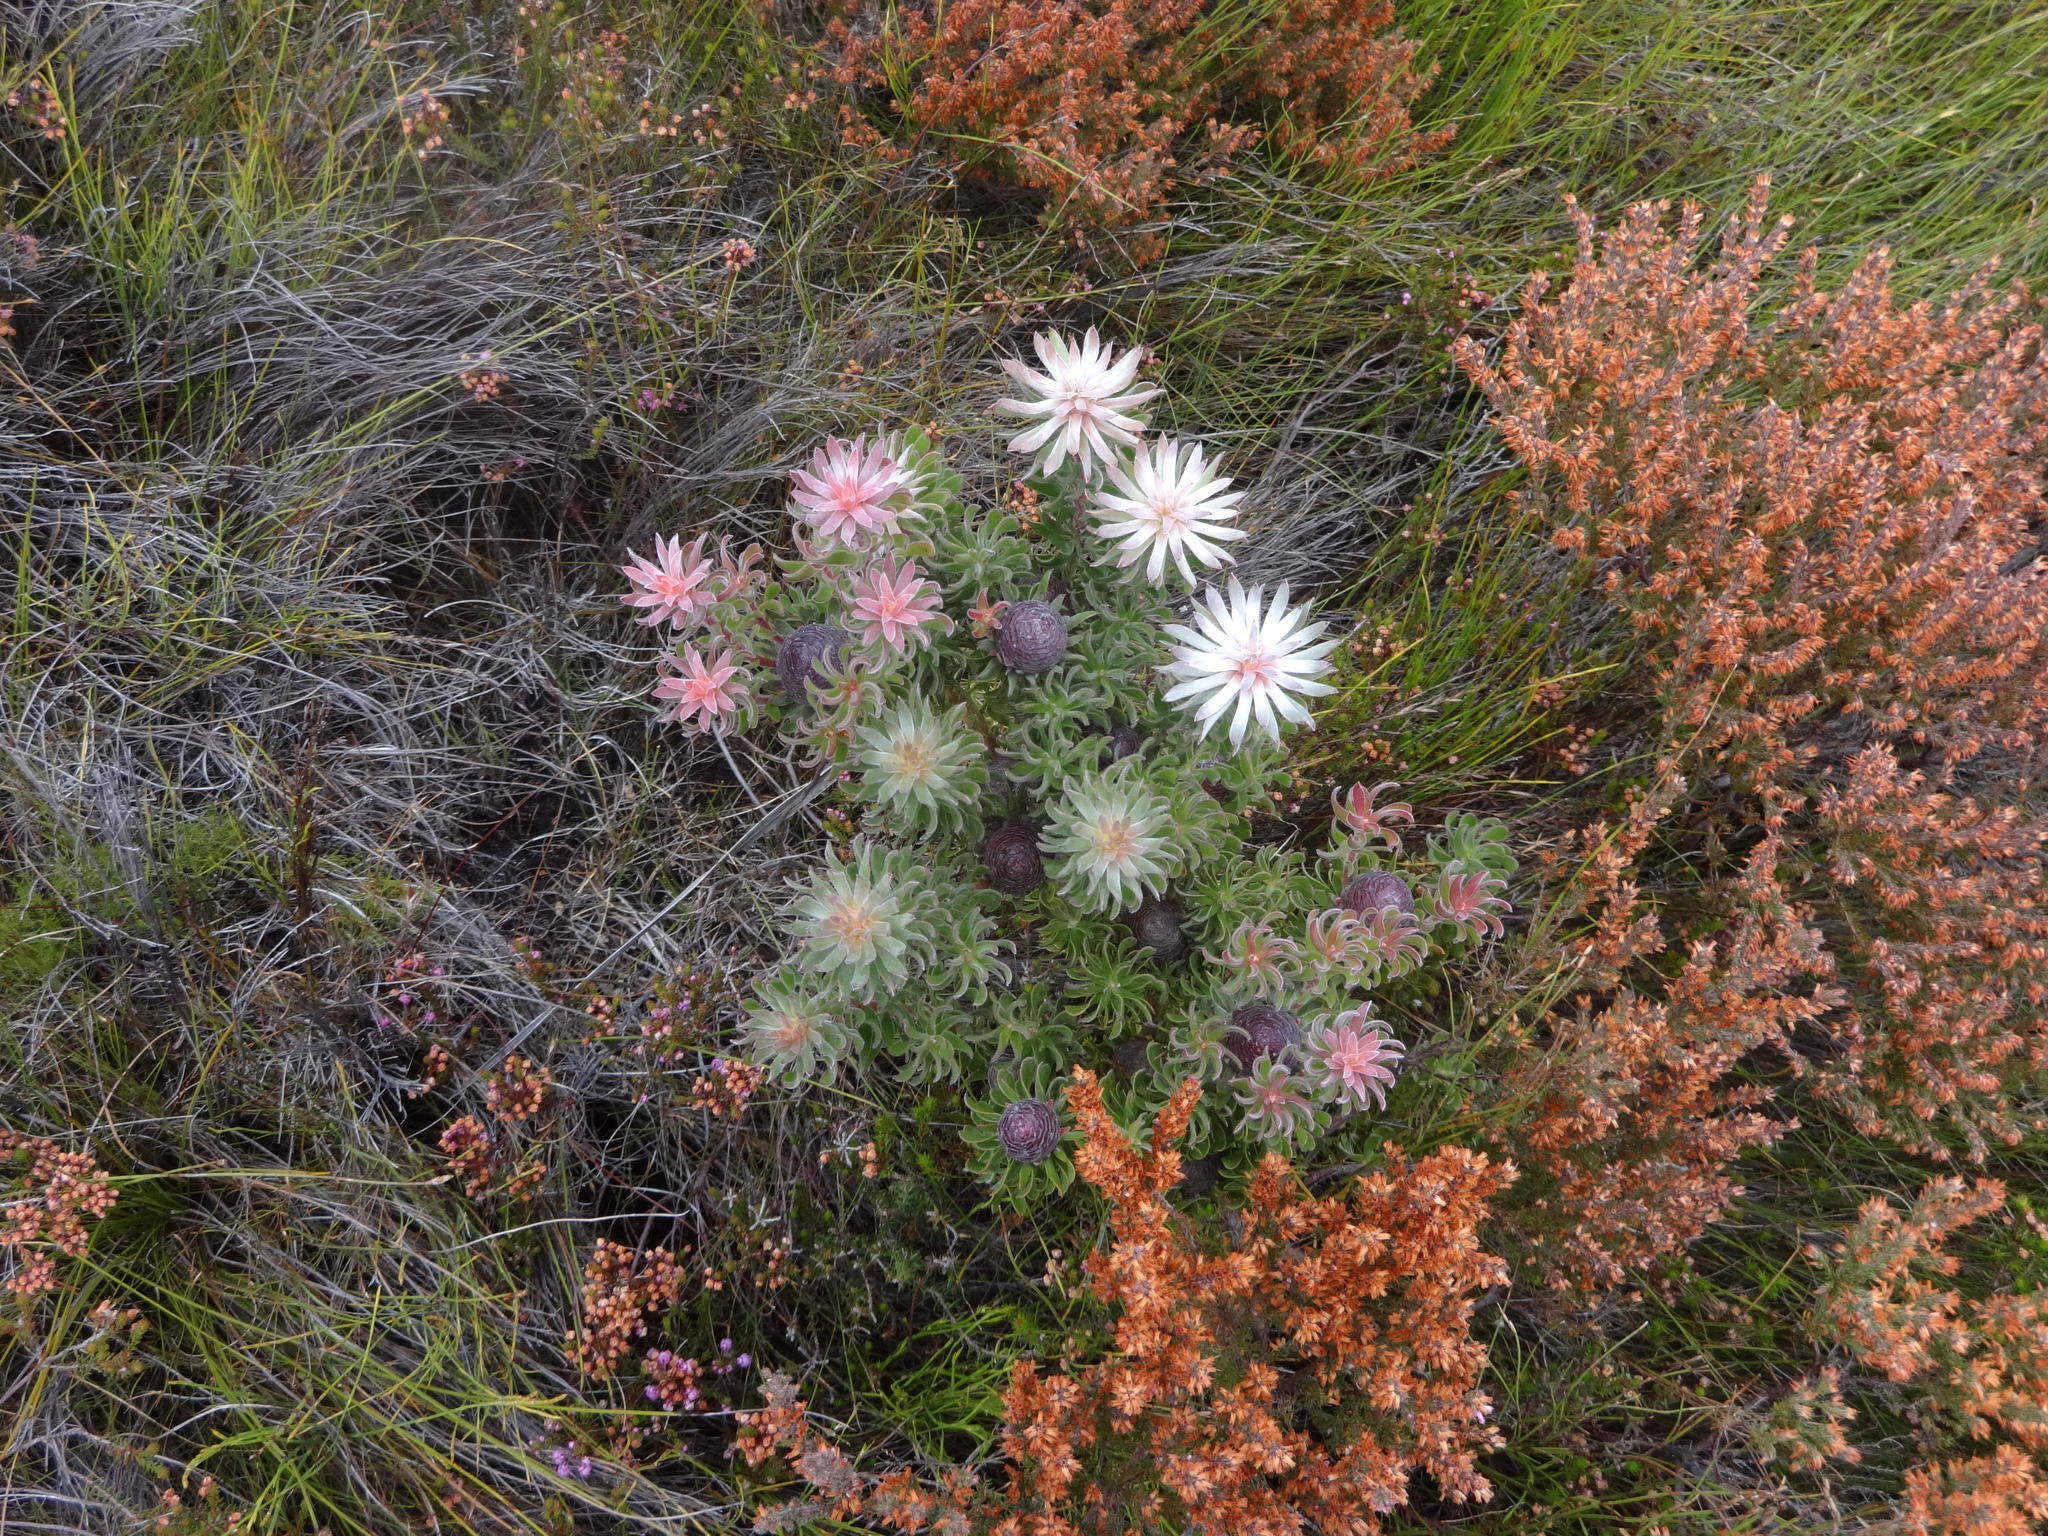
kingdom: Plantae
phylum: Tracheophyta
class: Magnoliopsida
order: Proteales
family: Proteaceae
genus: Leucadendron
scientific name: Leucadendron radiatum
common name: Langeberg conebush
